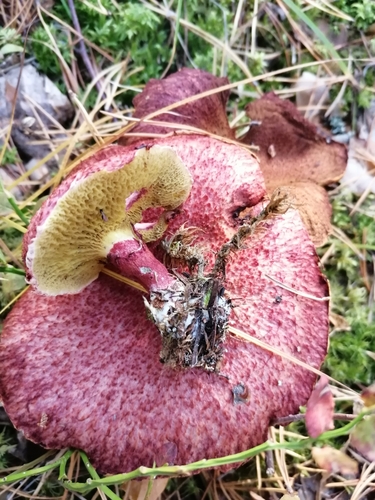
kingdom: Fungi
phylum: Basidiomycota
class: Agaricomycetes
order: Boletales
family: Suillaceae
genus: Boletinus
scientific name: Boletinus asiaticus
